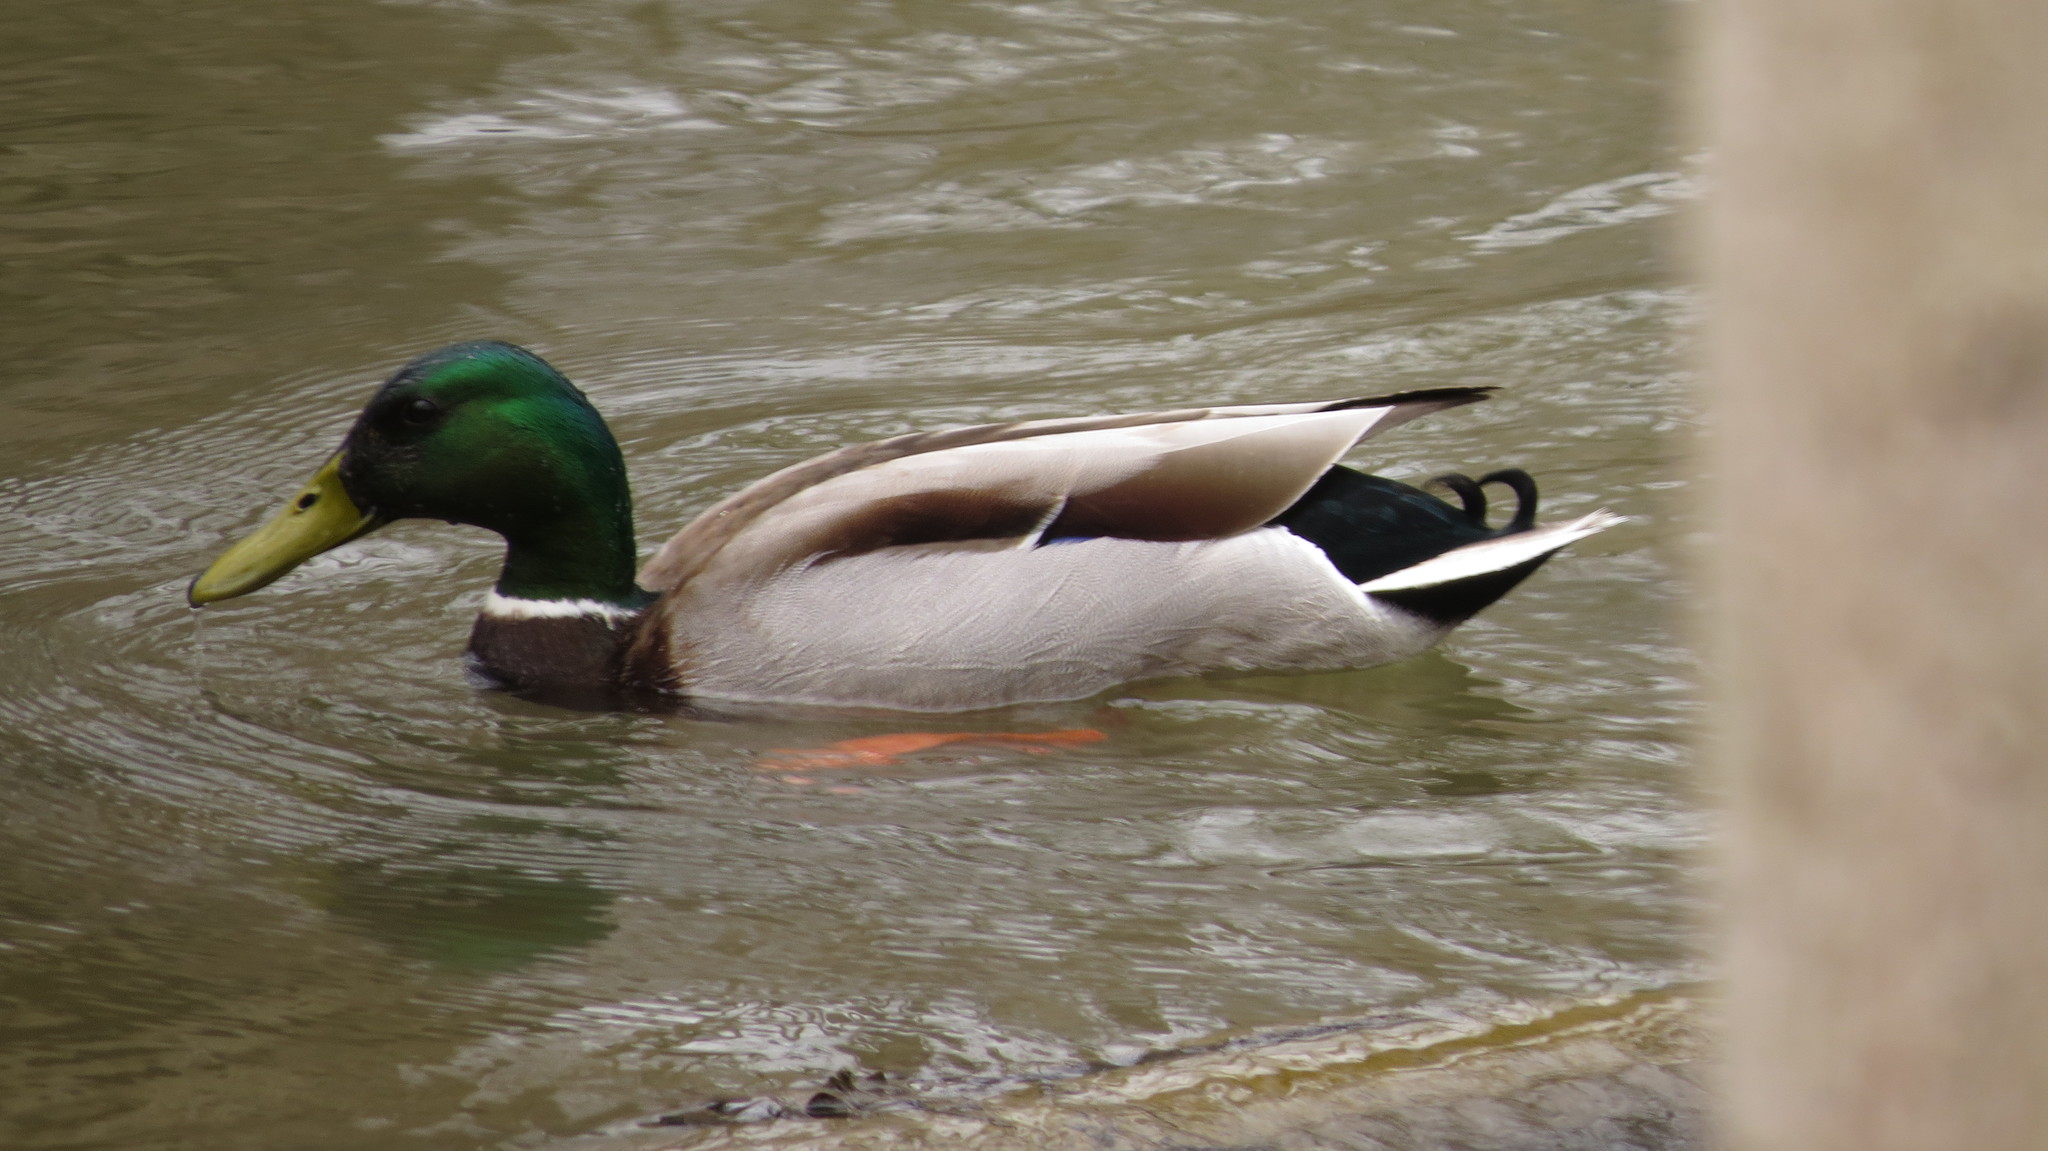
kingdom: Animalia
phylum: Chordata
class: Aves
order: Anseriformes
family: Anatidae
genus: Anas
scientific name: Anas platyrhynchos
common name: Mallard
